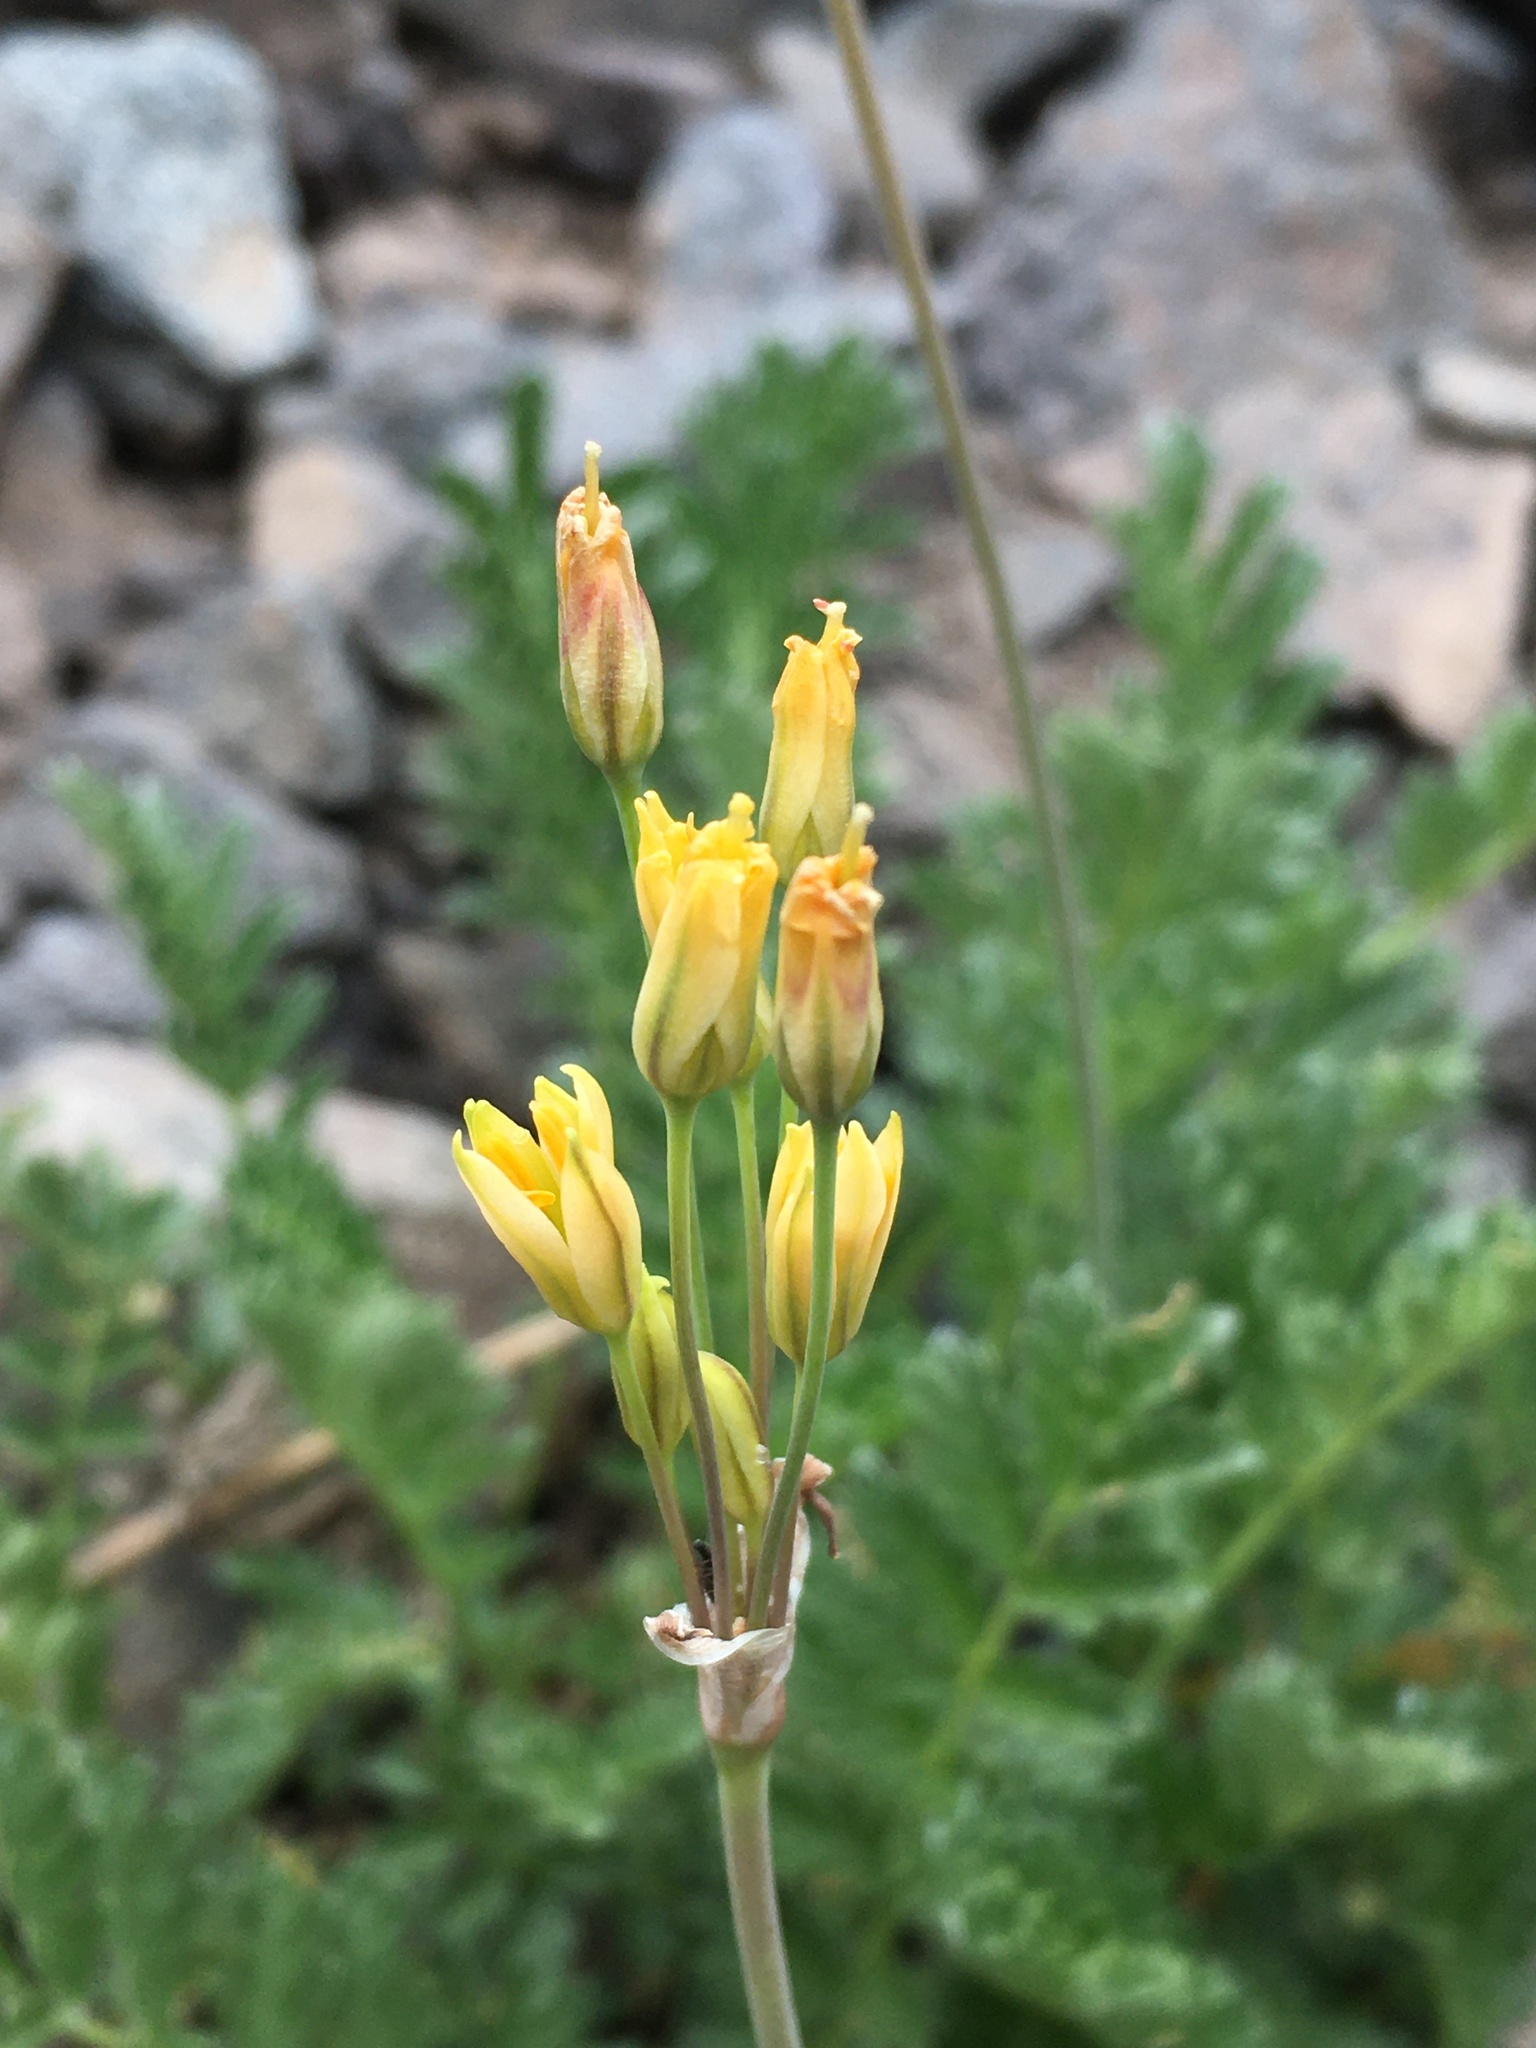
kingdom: Plantae
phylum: Tracheophyta
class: Liliopsida
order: Asparagales
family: Amaryllidaceae
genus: Latace
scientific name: Latace andina
